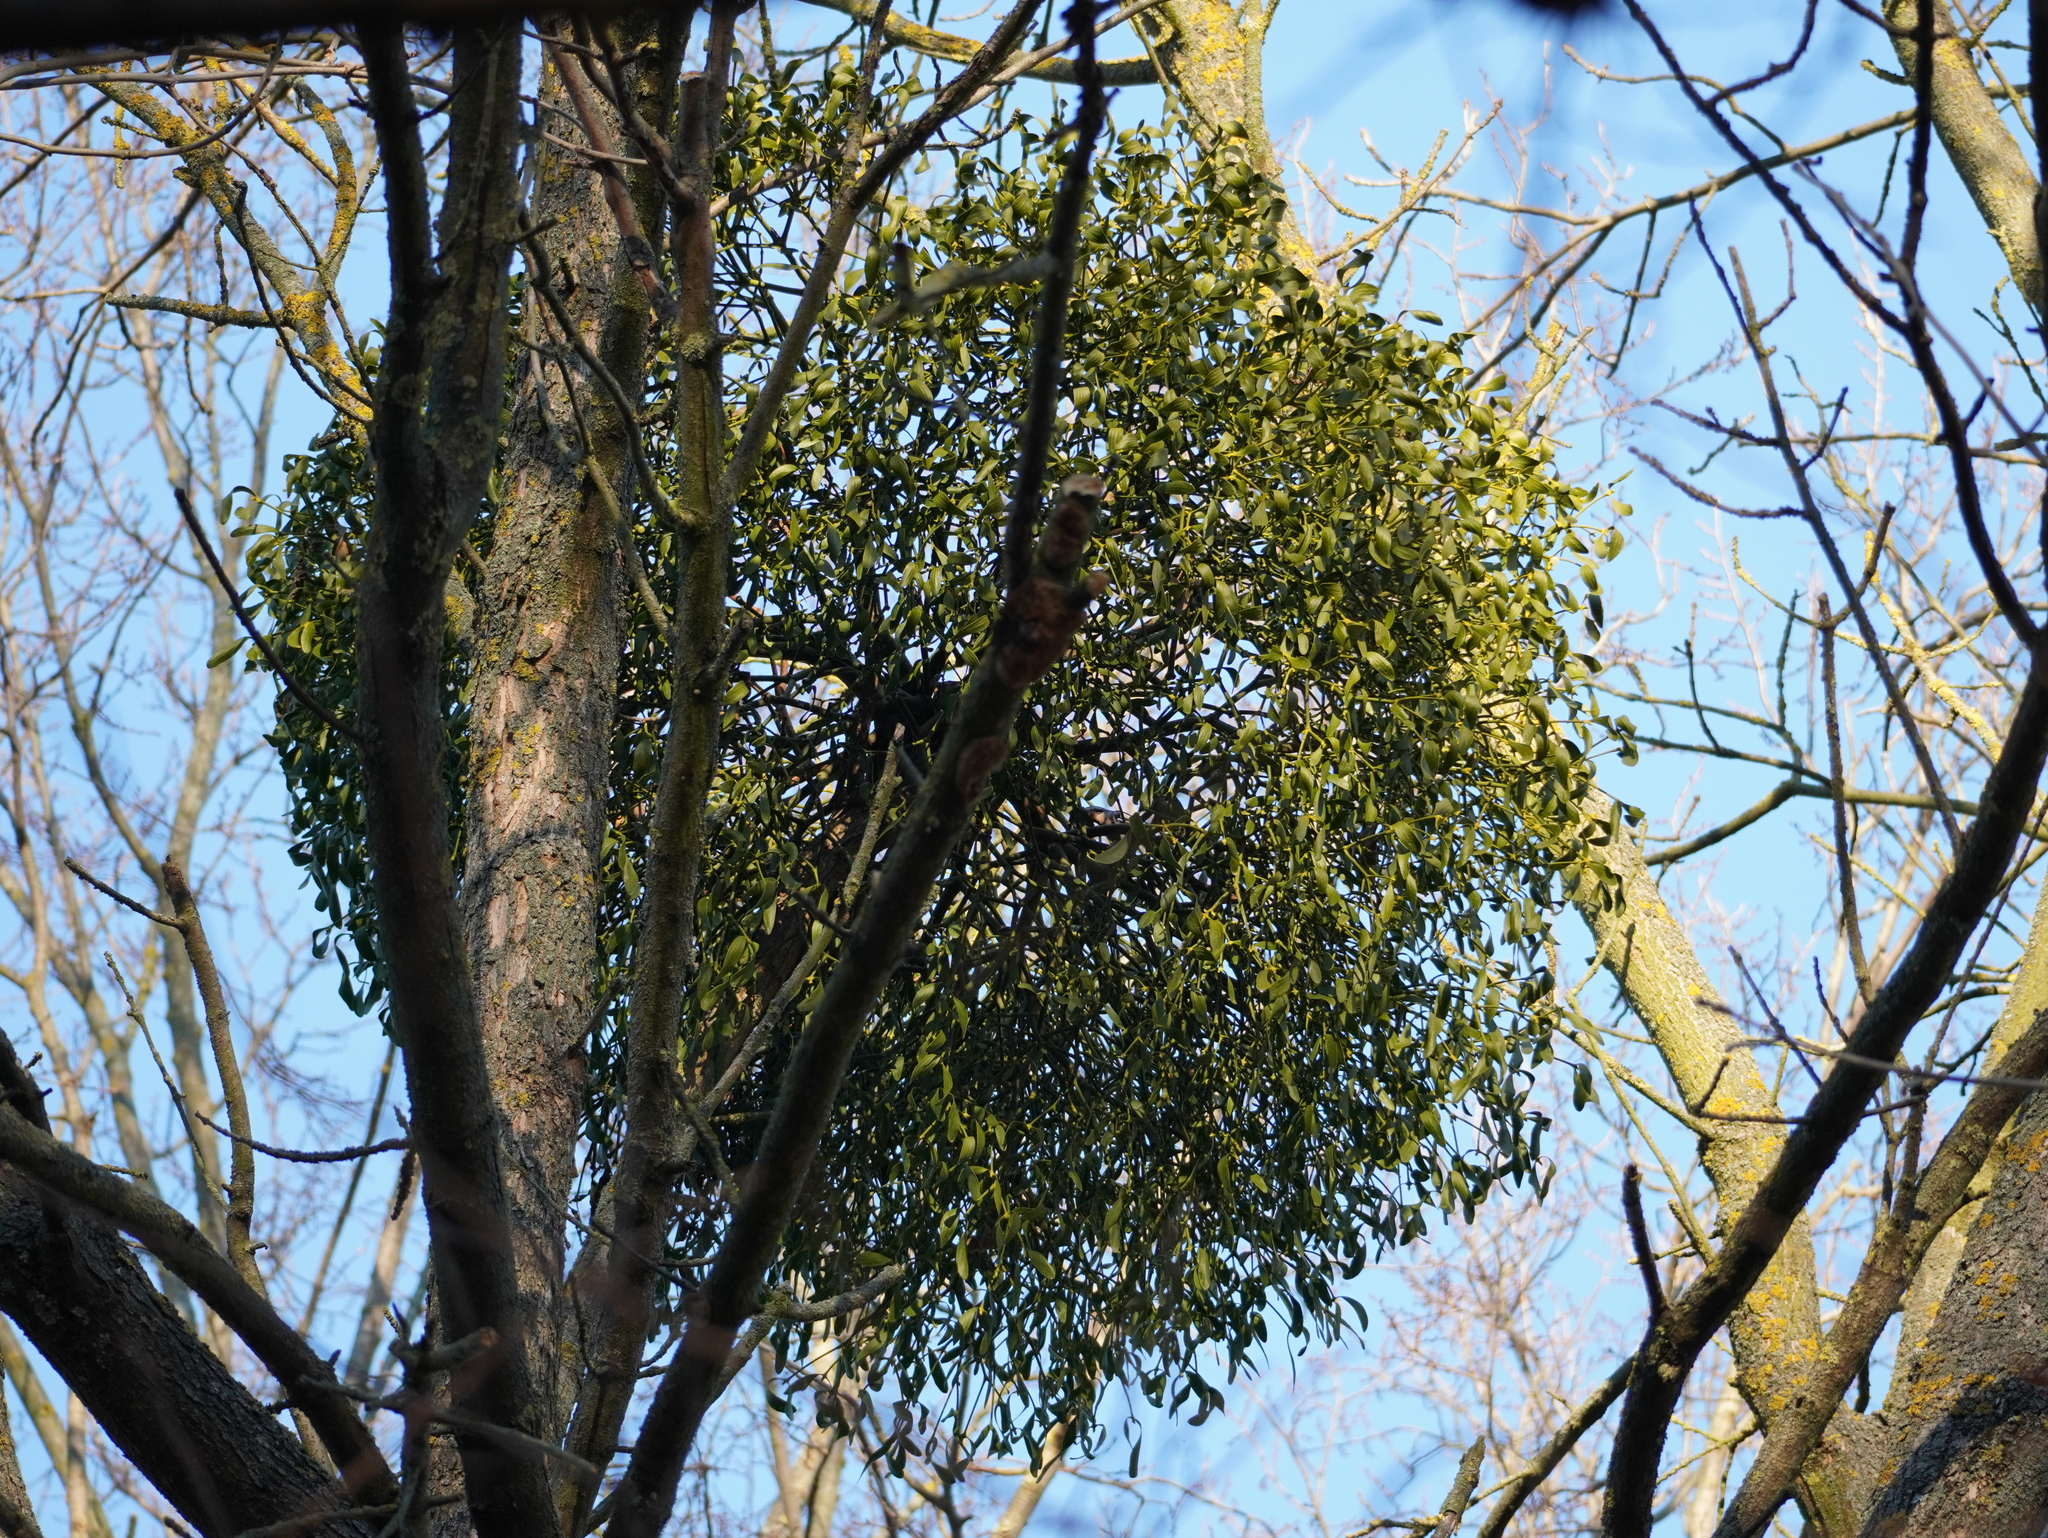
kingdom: Plantae
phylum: Tracheophyta
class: Magnoliopsida
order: Santalales
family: Viscaceae
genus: Viscum
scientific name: Viscum album
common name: Mistletoe
